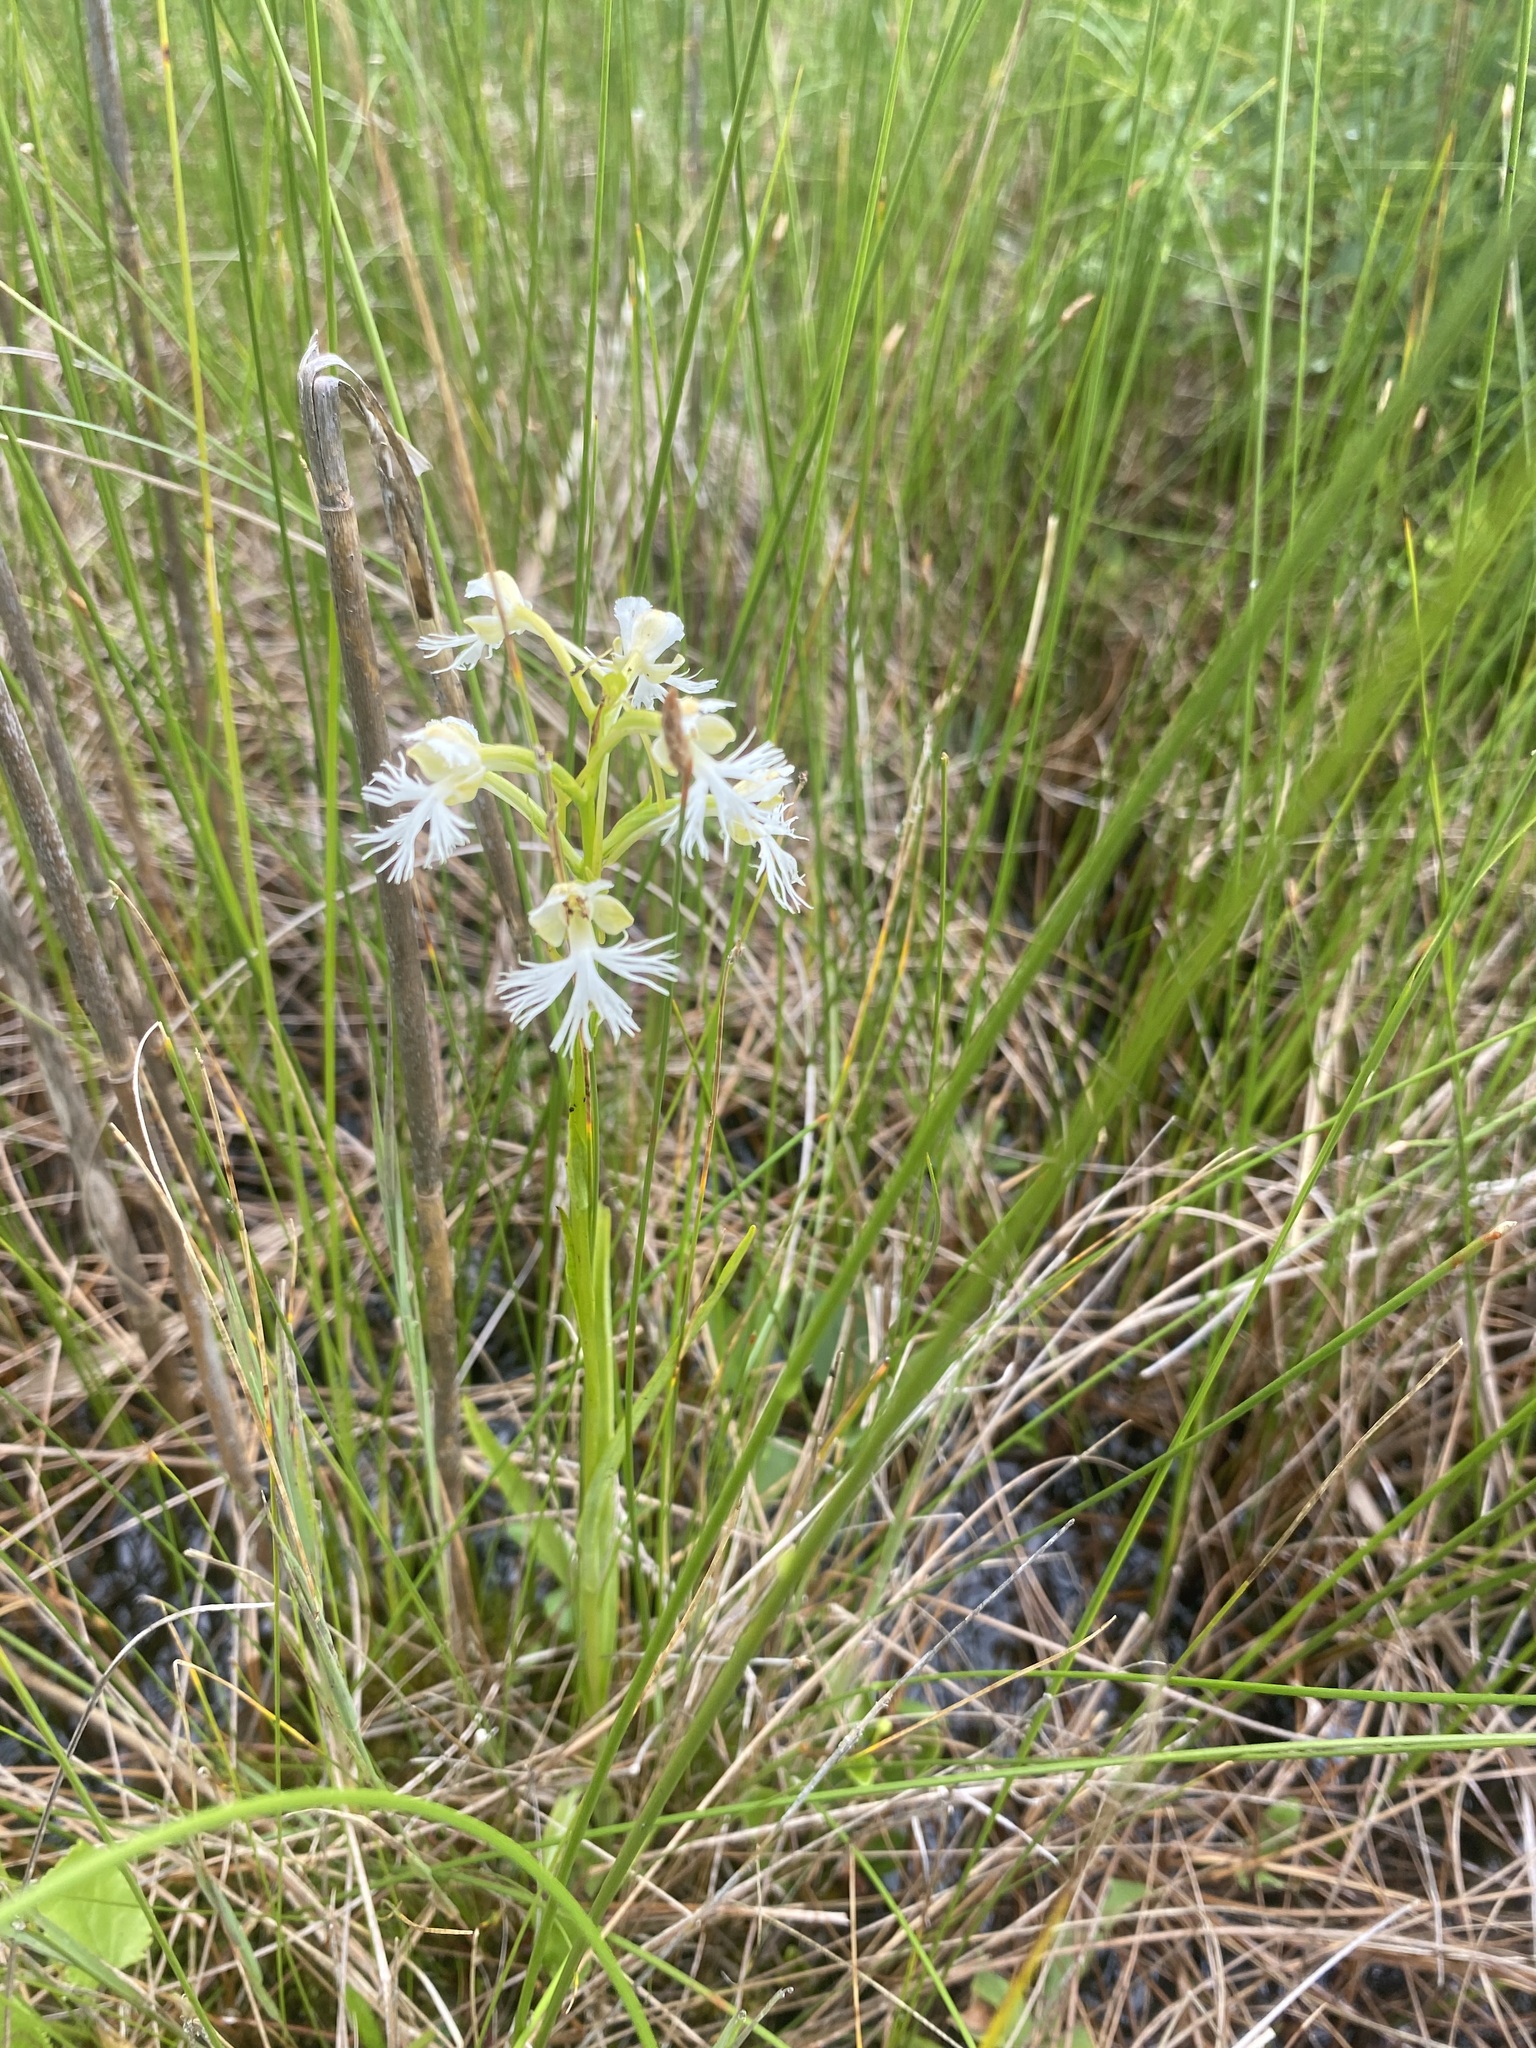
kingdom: Plantae
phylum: Tracheophyta
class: Liliopsida
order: Asparagales
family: Orchidaceae
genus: Platanthera
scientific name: Platanthera leucophaea
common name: Eastern prairie white-fringed orchid
